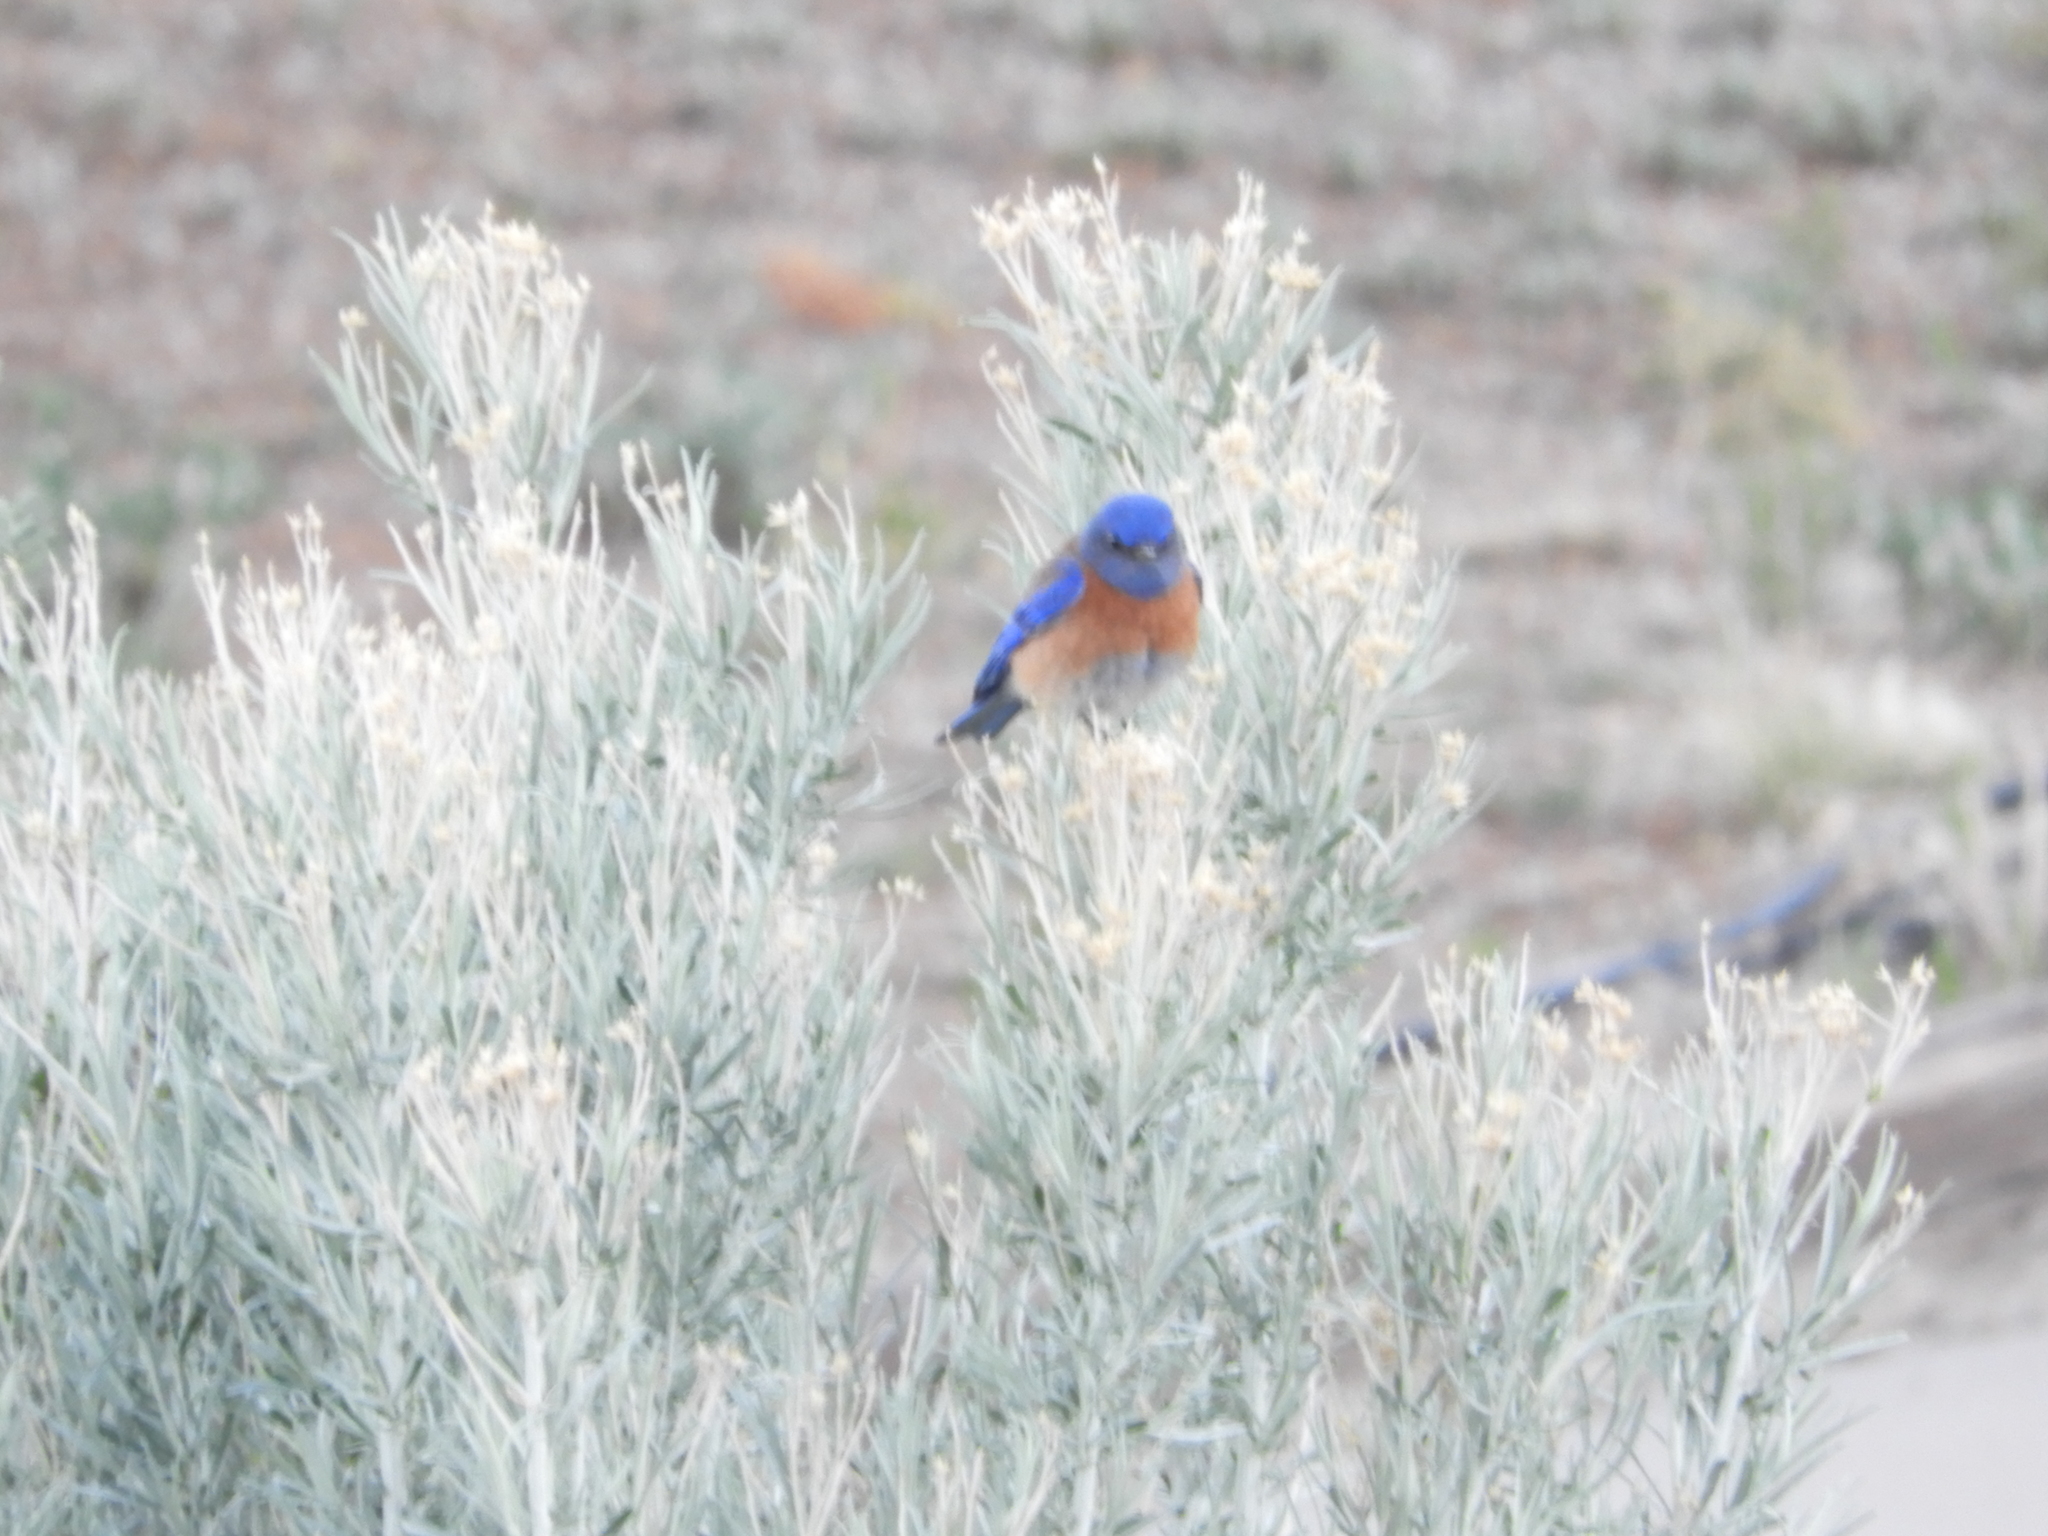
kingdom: Animalia
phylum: Chordata
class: Aves
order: Passeriformes
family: Turdidae
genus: Sialia
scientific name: Sialia mexicana
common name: Western bluebird
